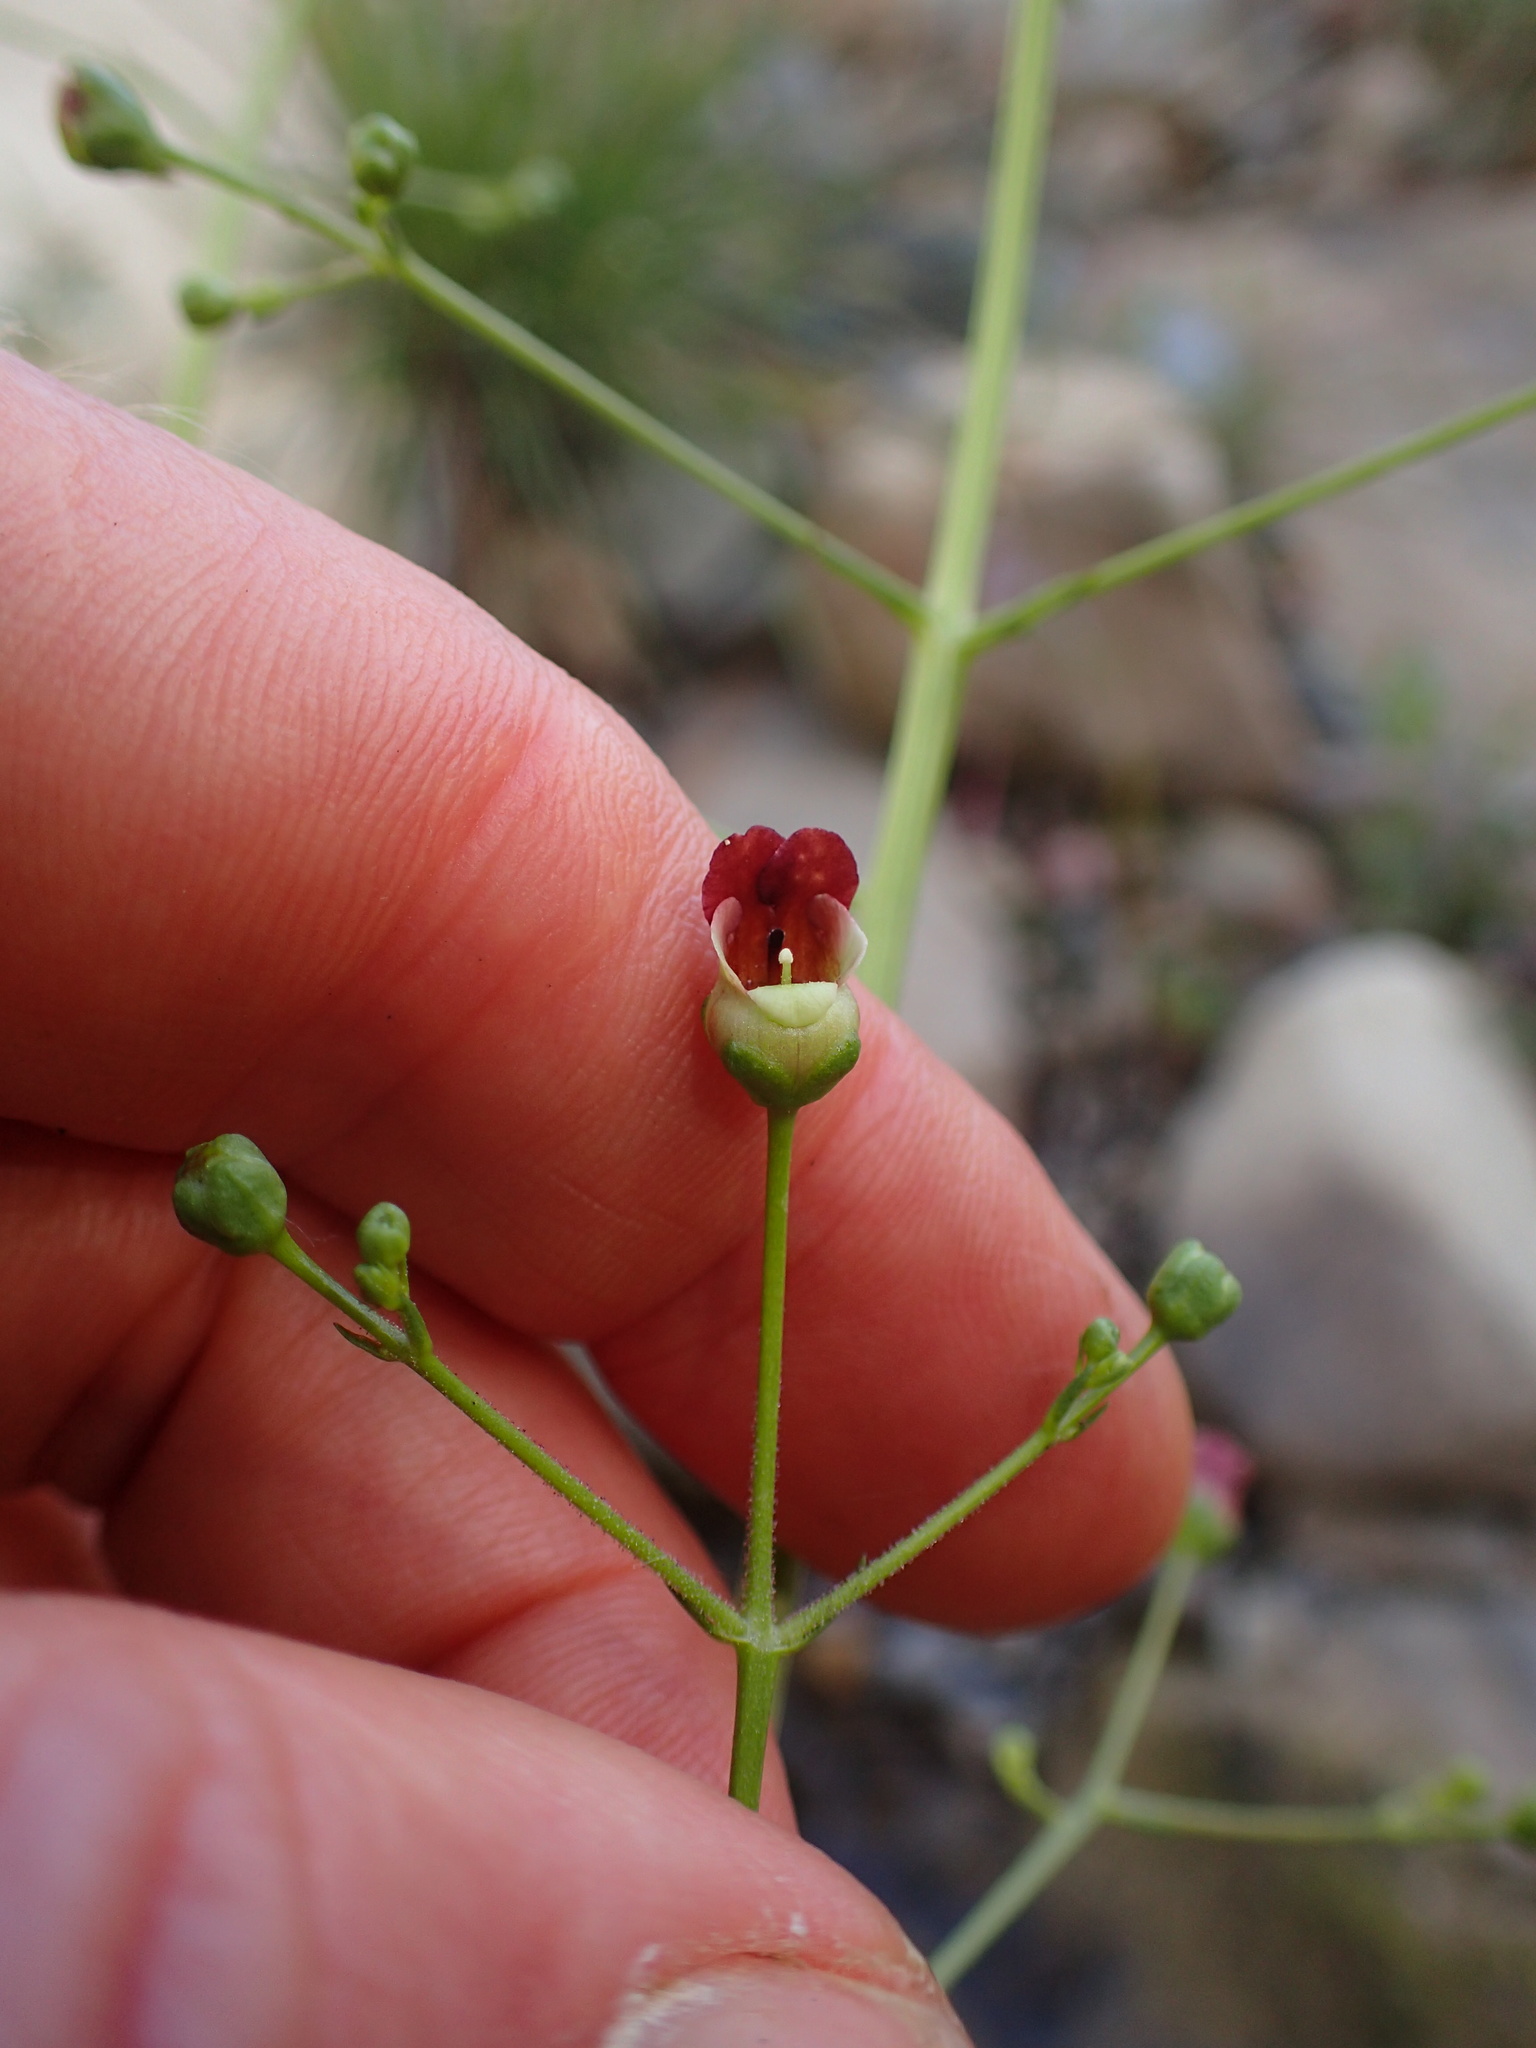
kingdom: Plantae
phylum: Tracheophyta
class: Magnoliopsida
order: Lamiales
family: Scrophulariaceae
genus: Scrophularia
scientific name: Scrophularia californica
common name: California figwort
